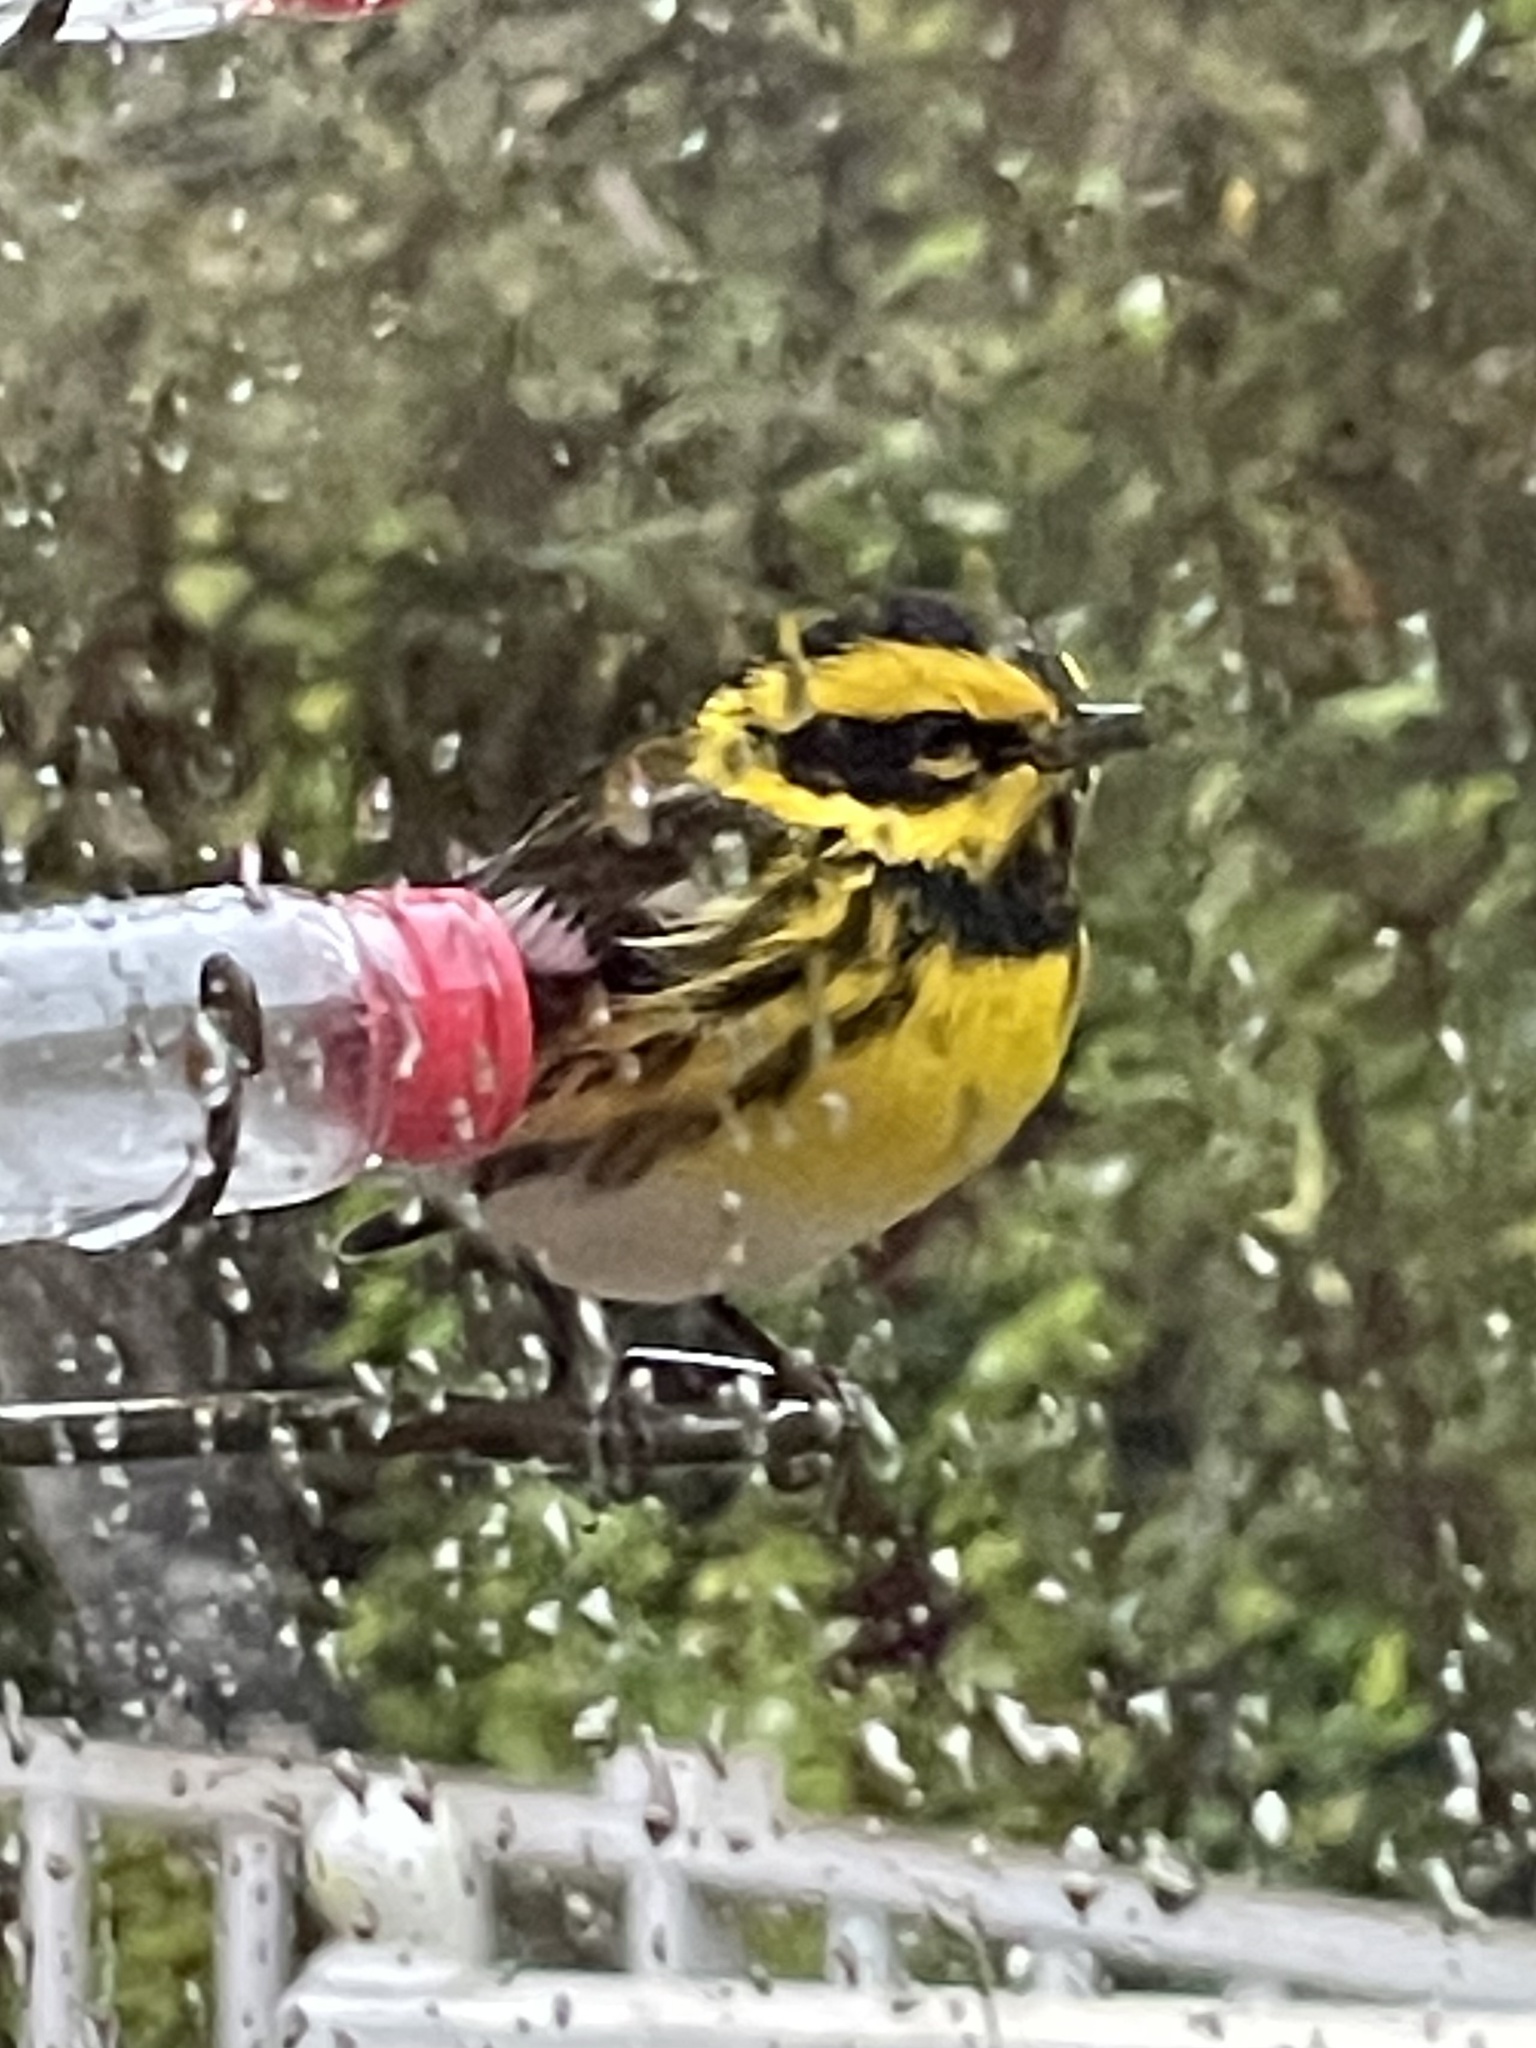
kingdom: Animalia
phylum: Chordata
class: Aves
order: Passeriformes
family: Parulidae
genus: Setophaga
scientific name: Setophaga townsendi
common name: Townsend's warbler
